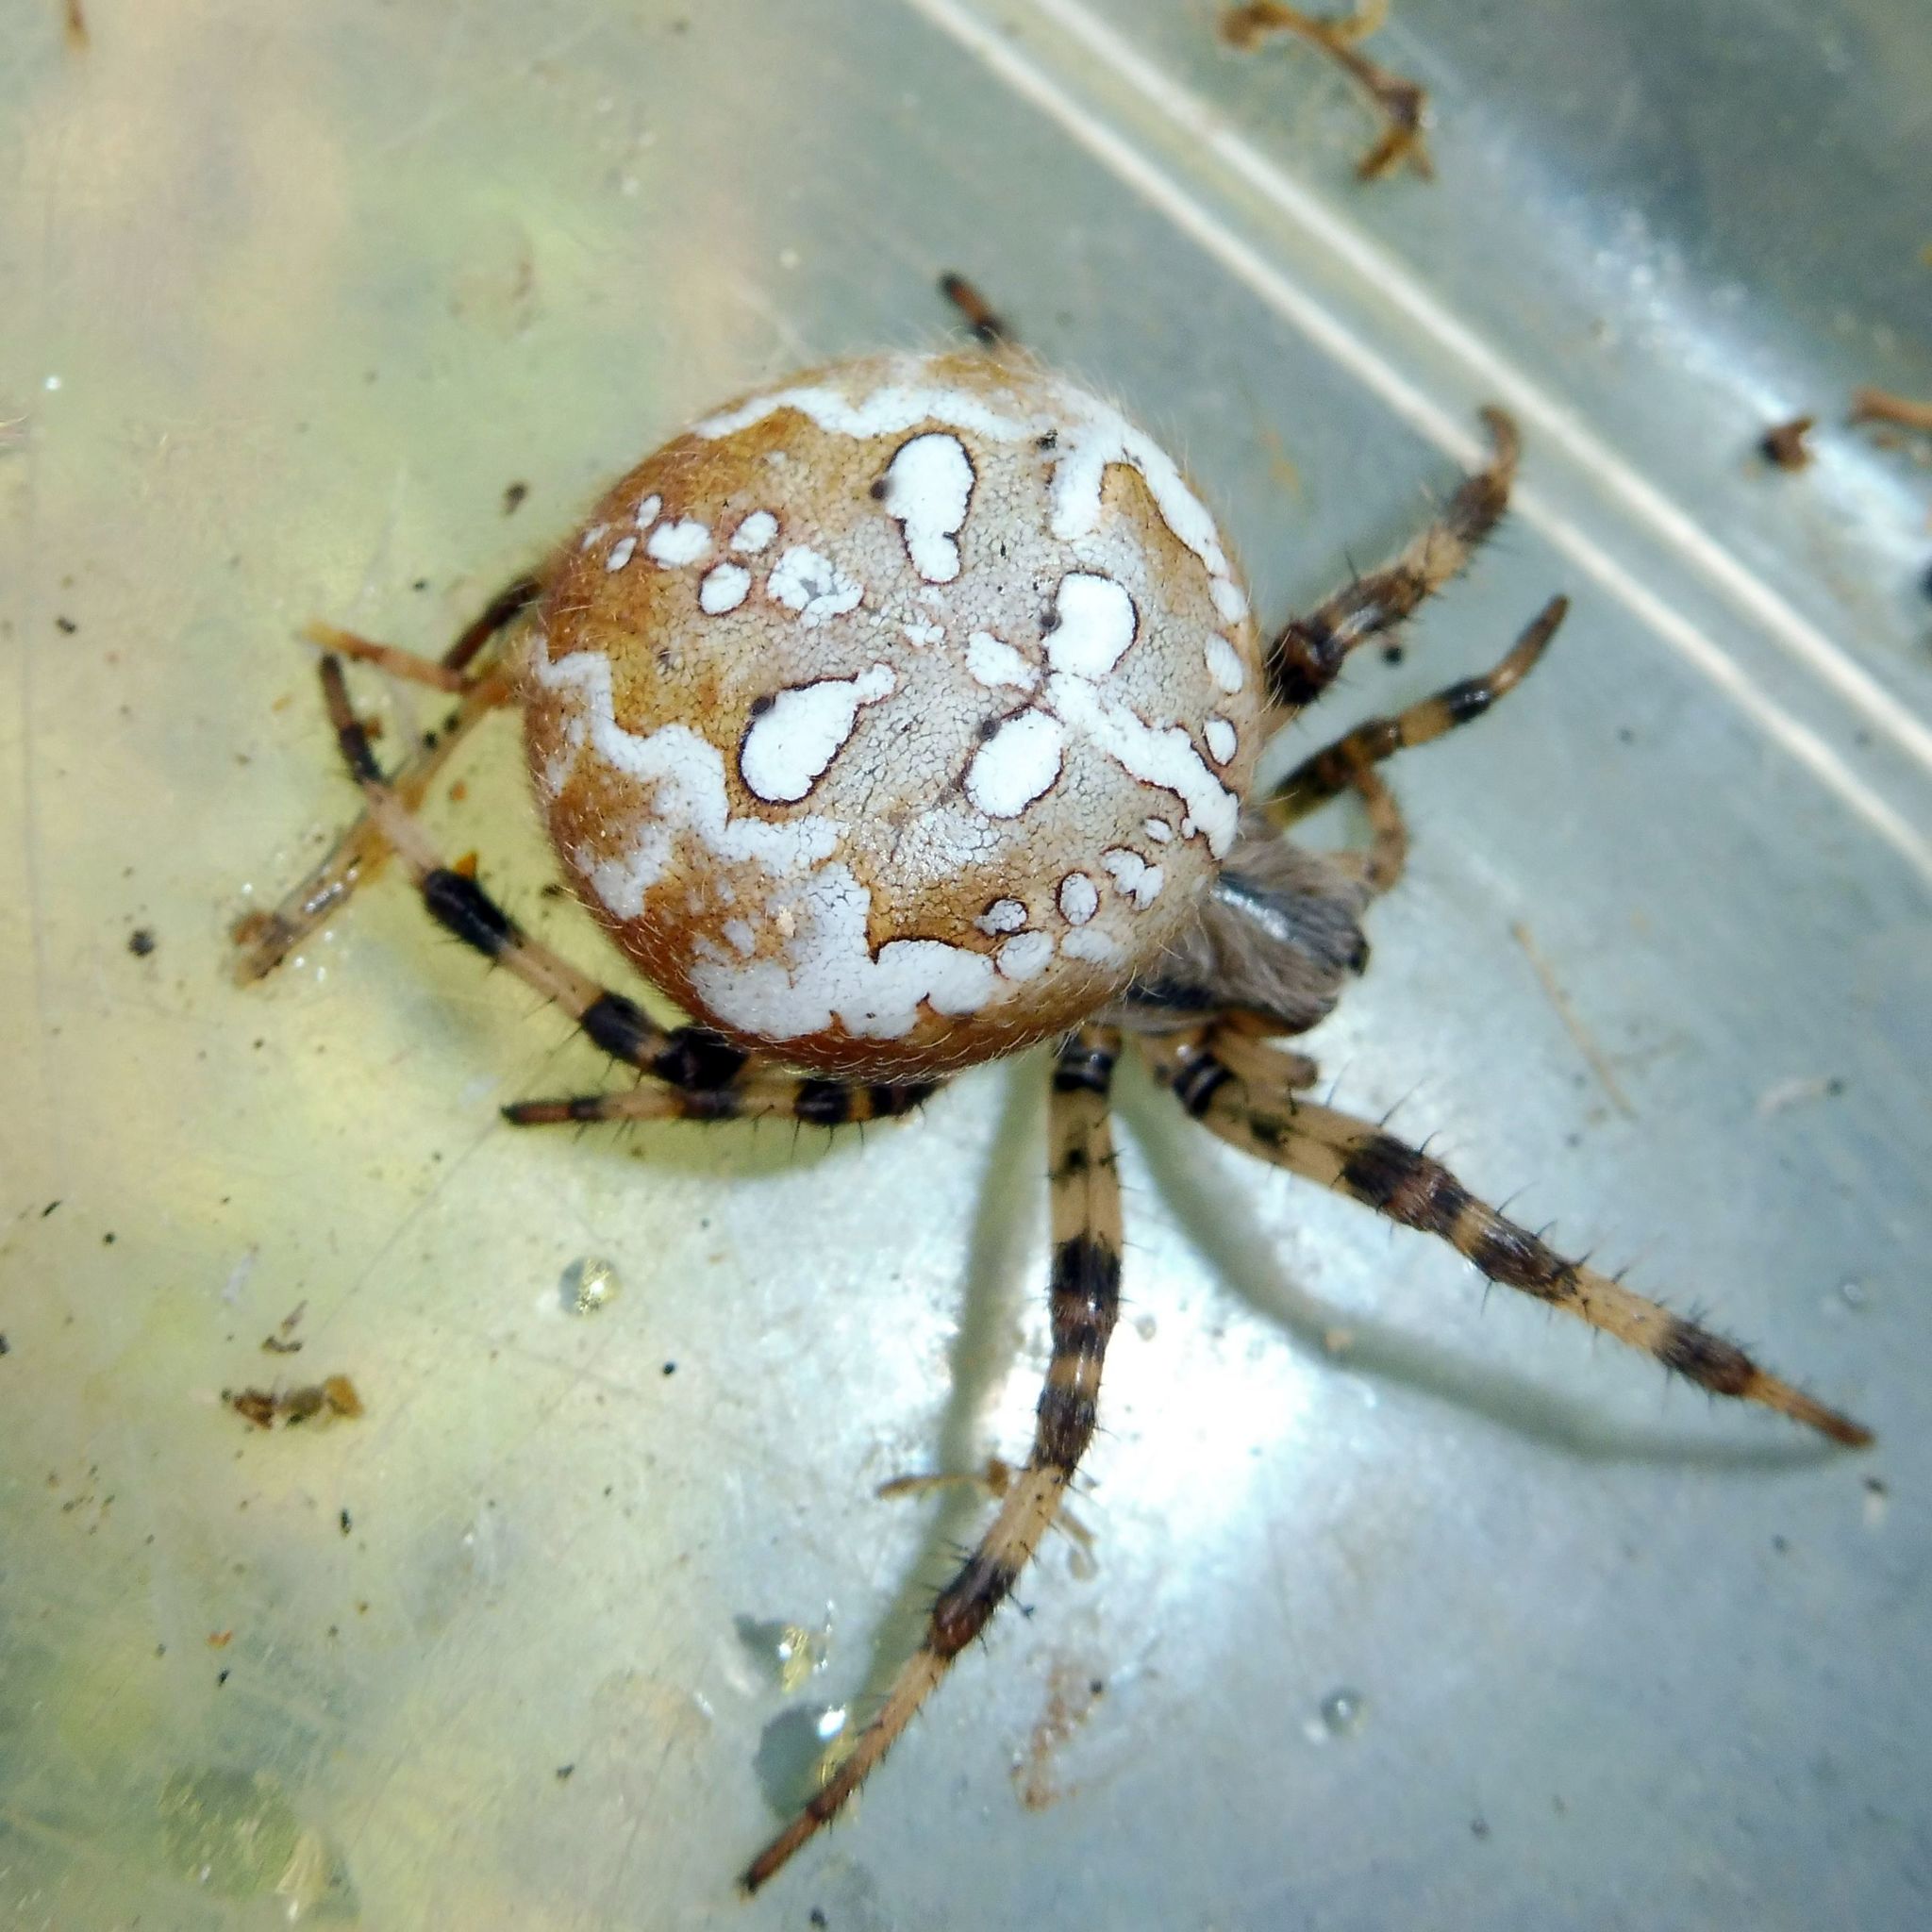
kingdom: Animalia
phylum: Arthropoda
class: Arachnida
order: Araneae
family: Araneidae
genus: Araneus
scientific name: Araneus quadratus
